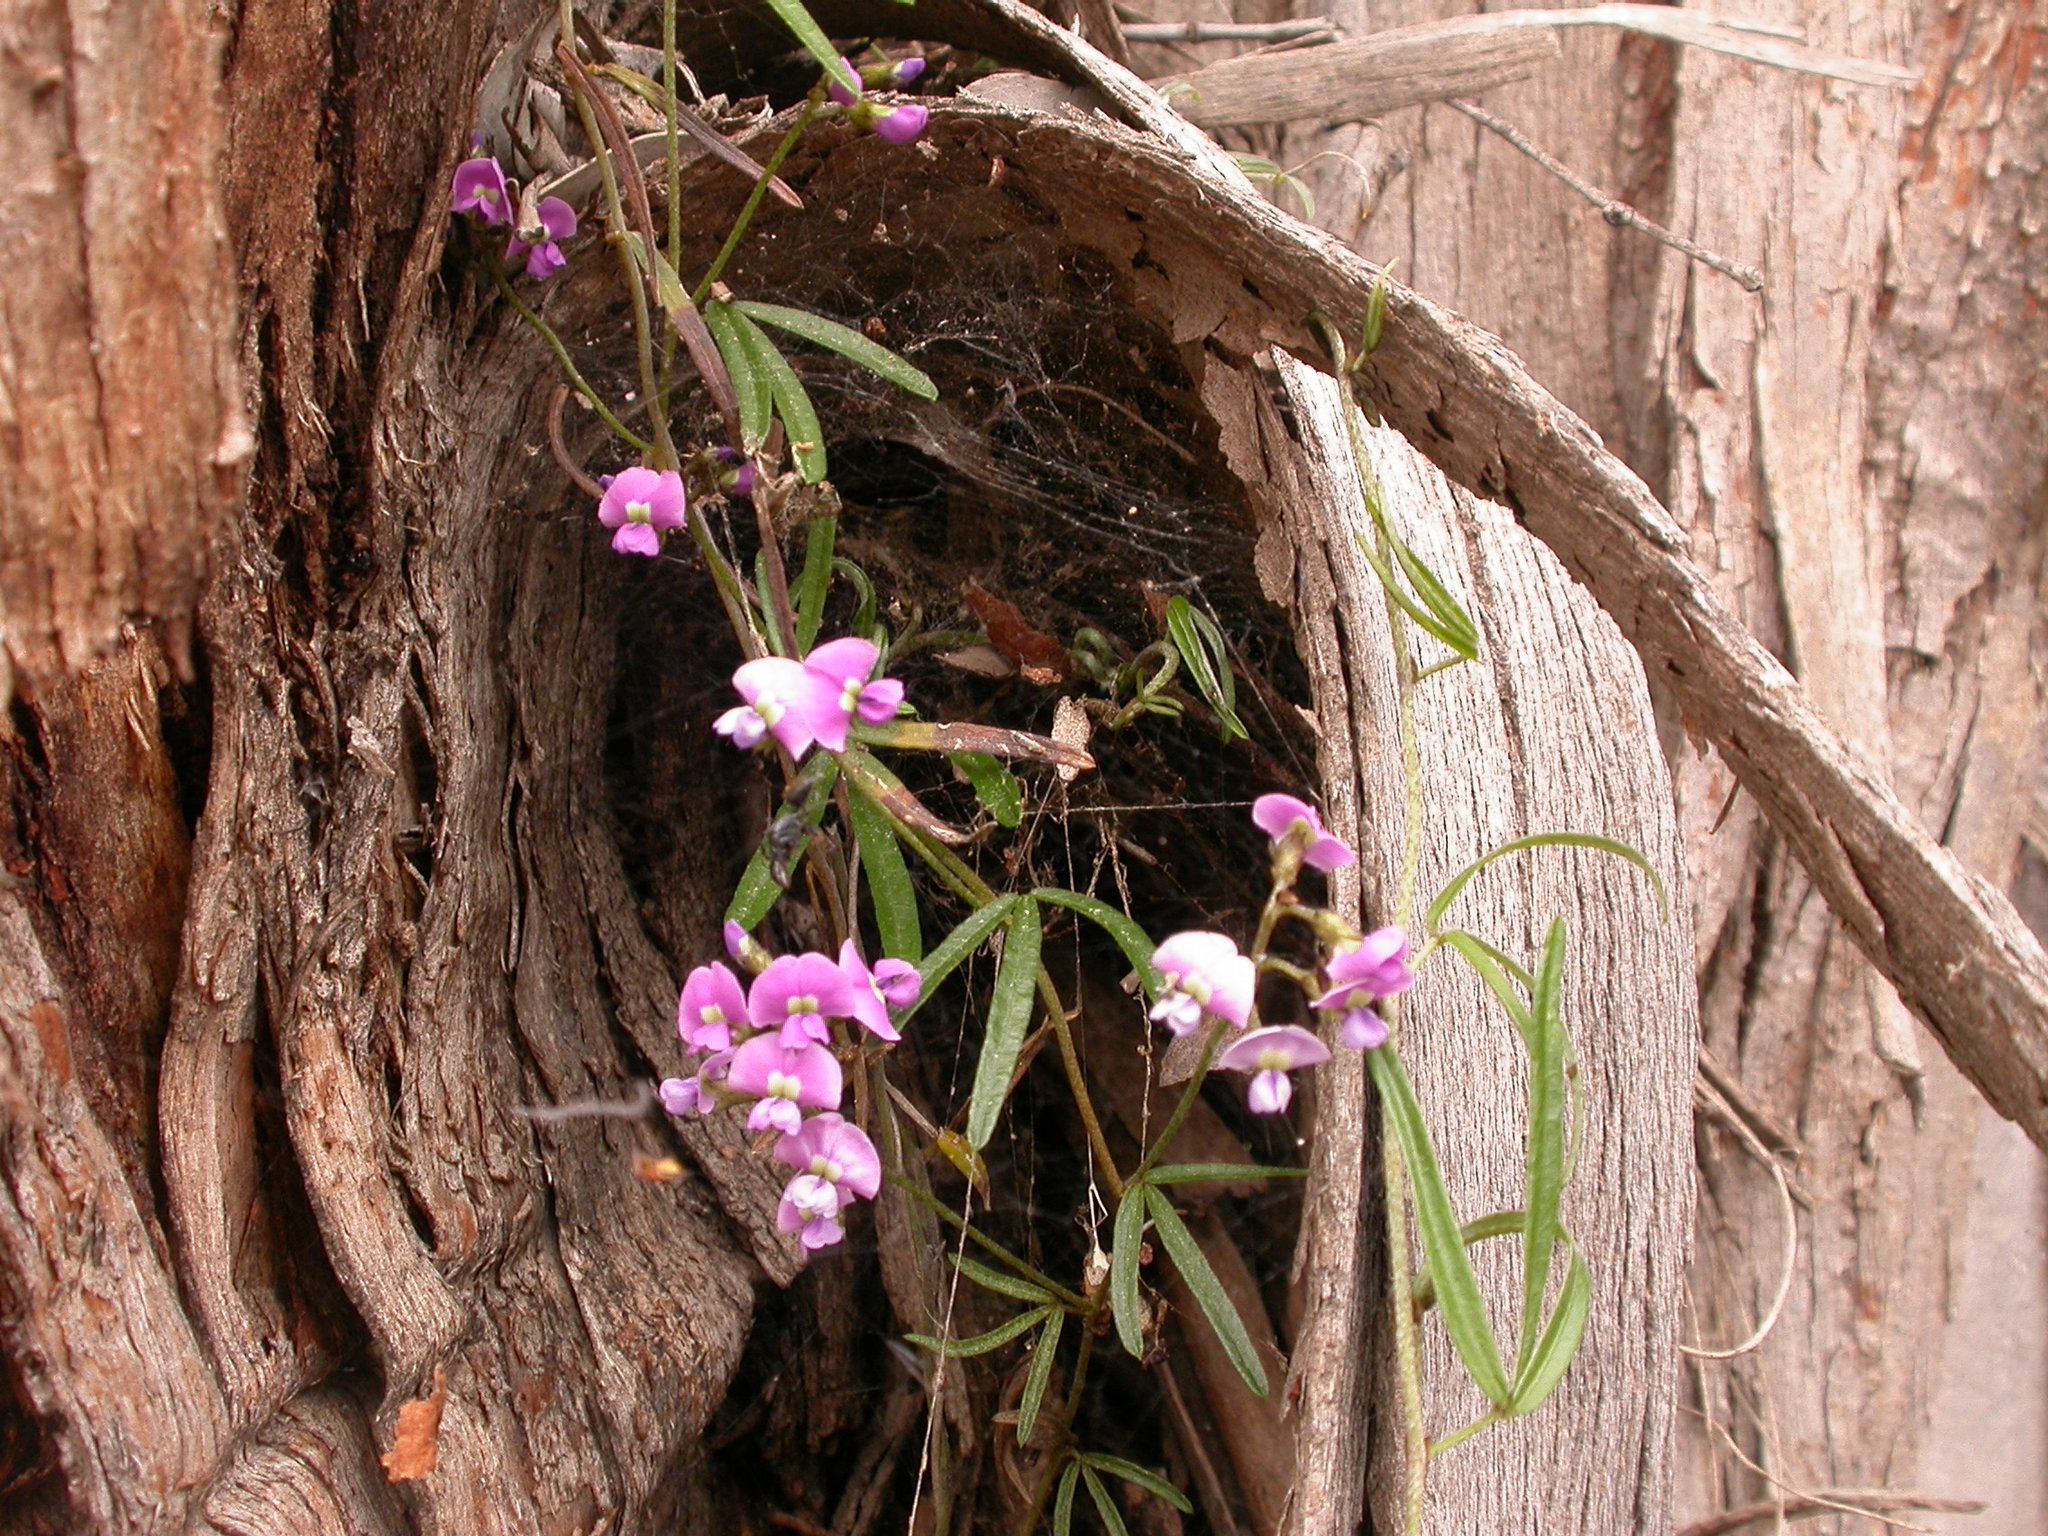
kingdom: Plantae
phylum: Tracheophyta
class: Magnoliopsida
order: Fabales
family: Fabaceae
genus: Glycine
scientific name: Glycine clandestina
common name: Twining glycine
